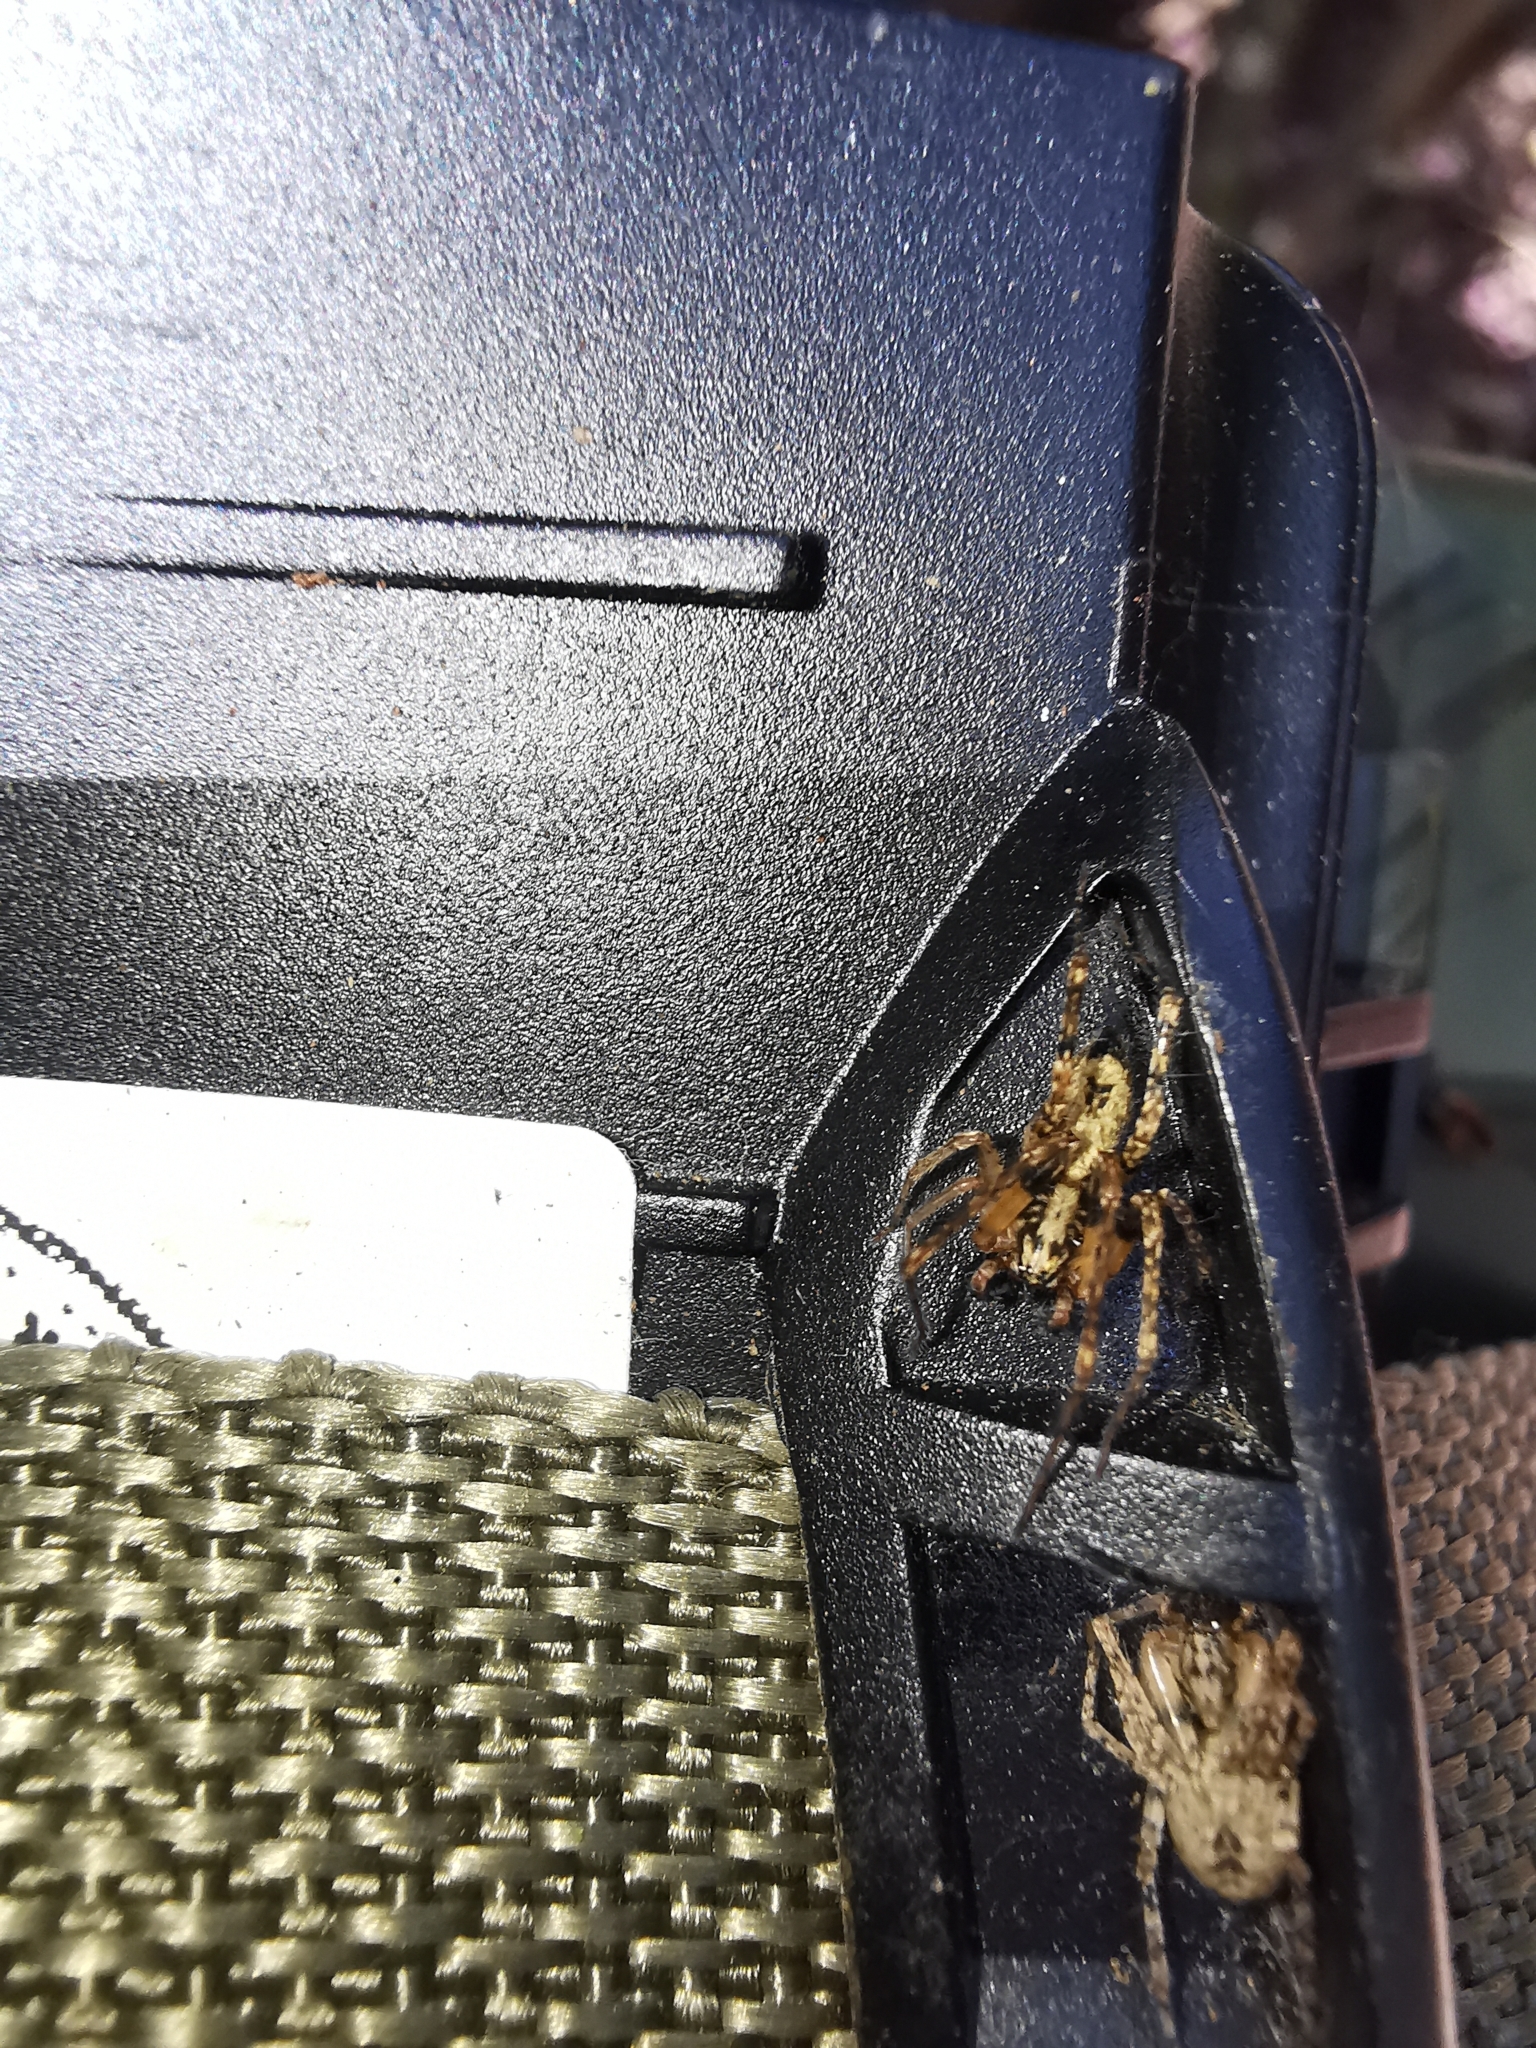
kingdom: Animalia
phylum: Arthropoda
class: Arachnida
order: Araneae
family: Anyphaenidae
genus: Anyphaena
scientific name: Anyphaena accentuata
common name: Buzzing spider
